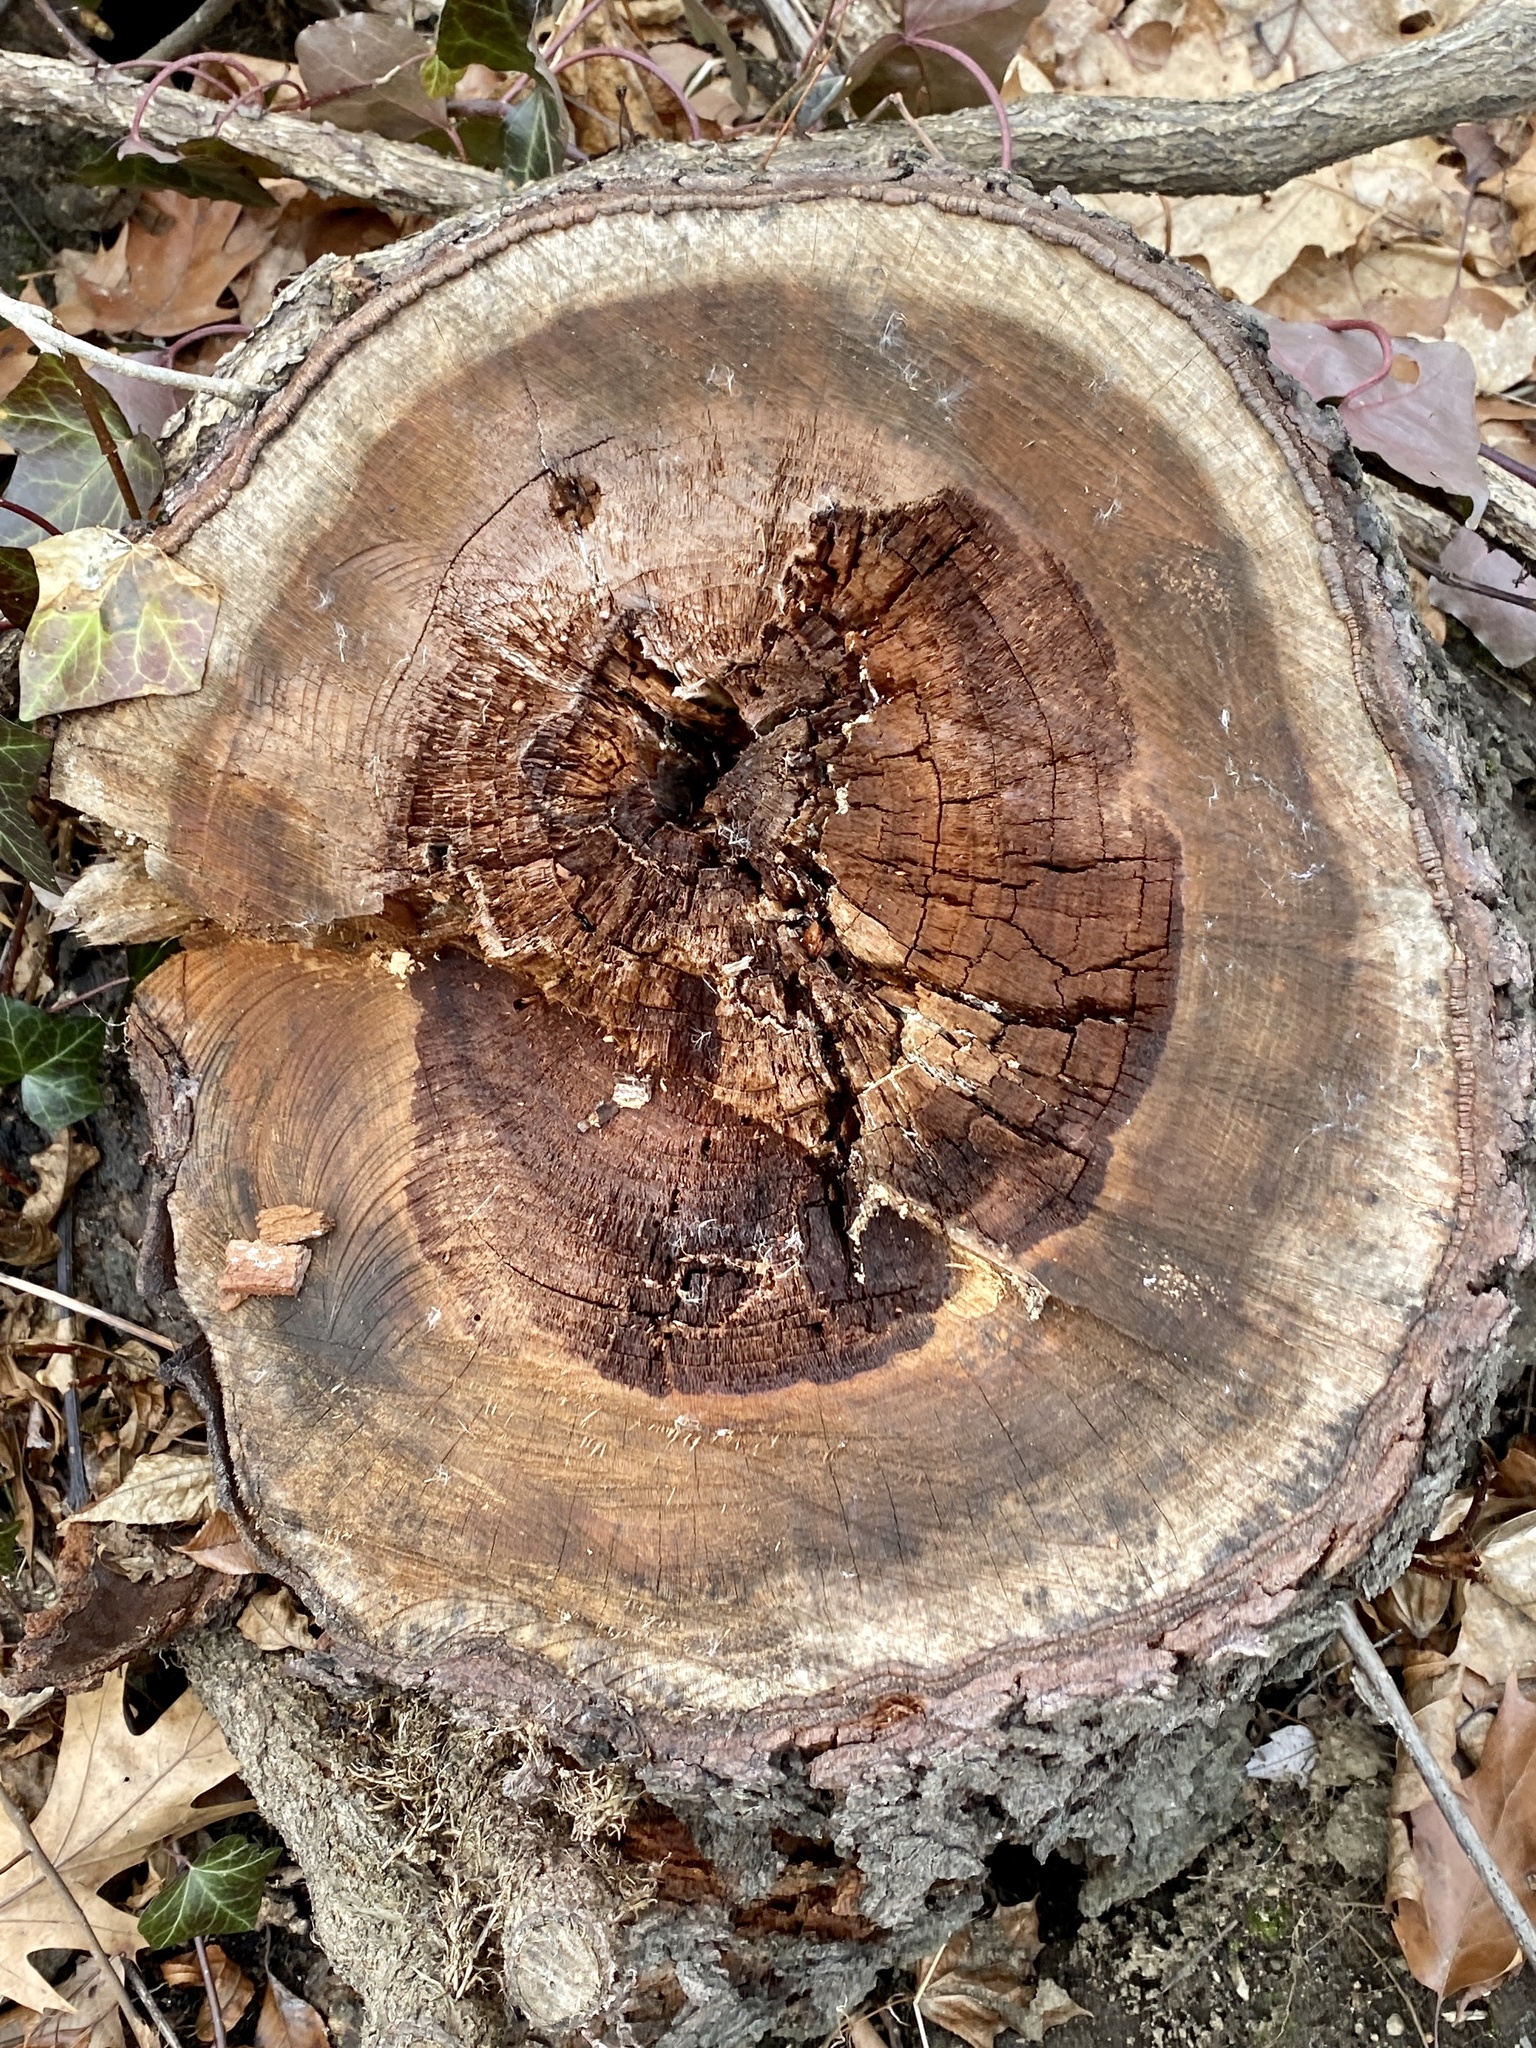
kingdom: Plantae
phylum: Tracheophyta
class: Magnoliopsida
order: Rosales
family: Rosaceae
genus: Prunus
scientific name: Prunus serotina
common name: Black cherry
